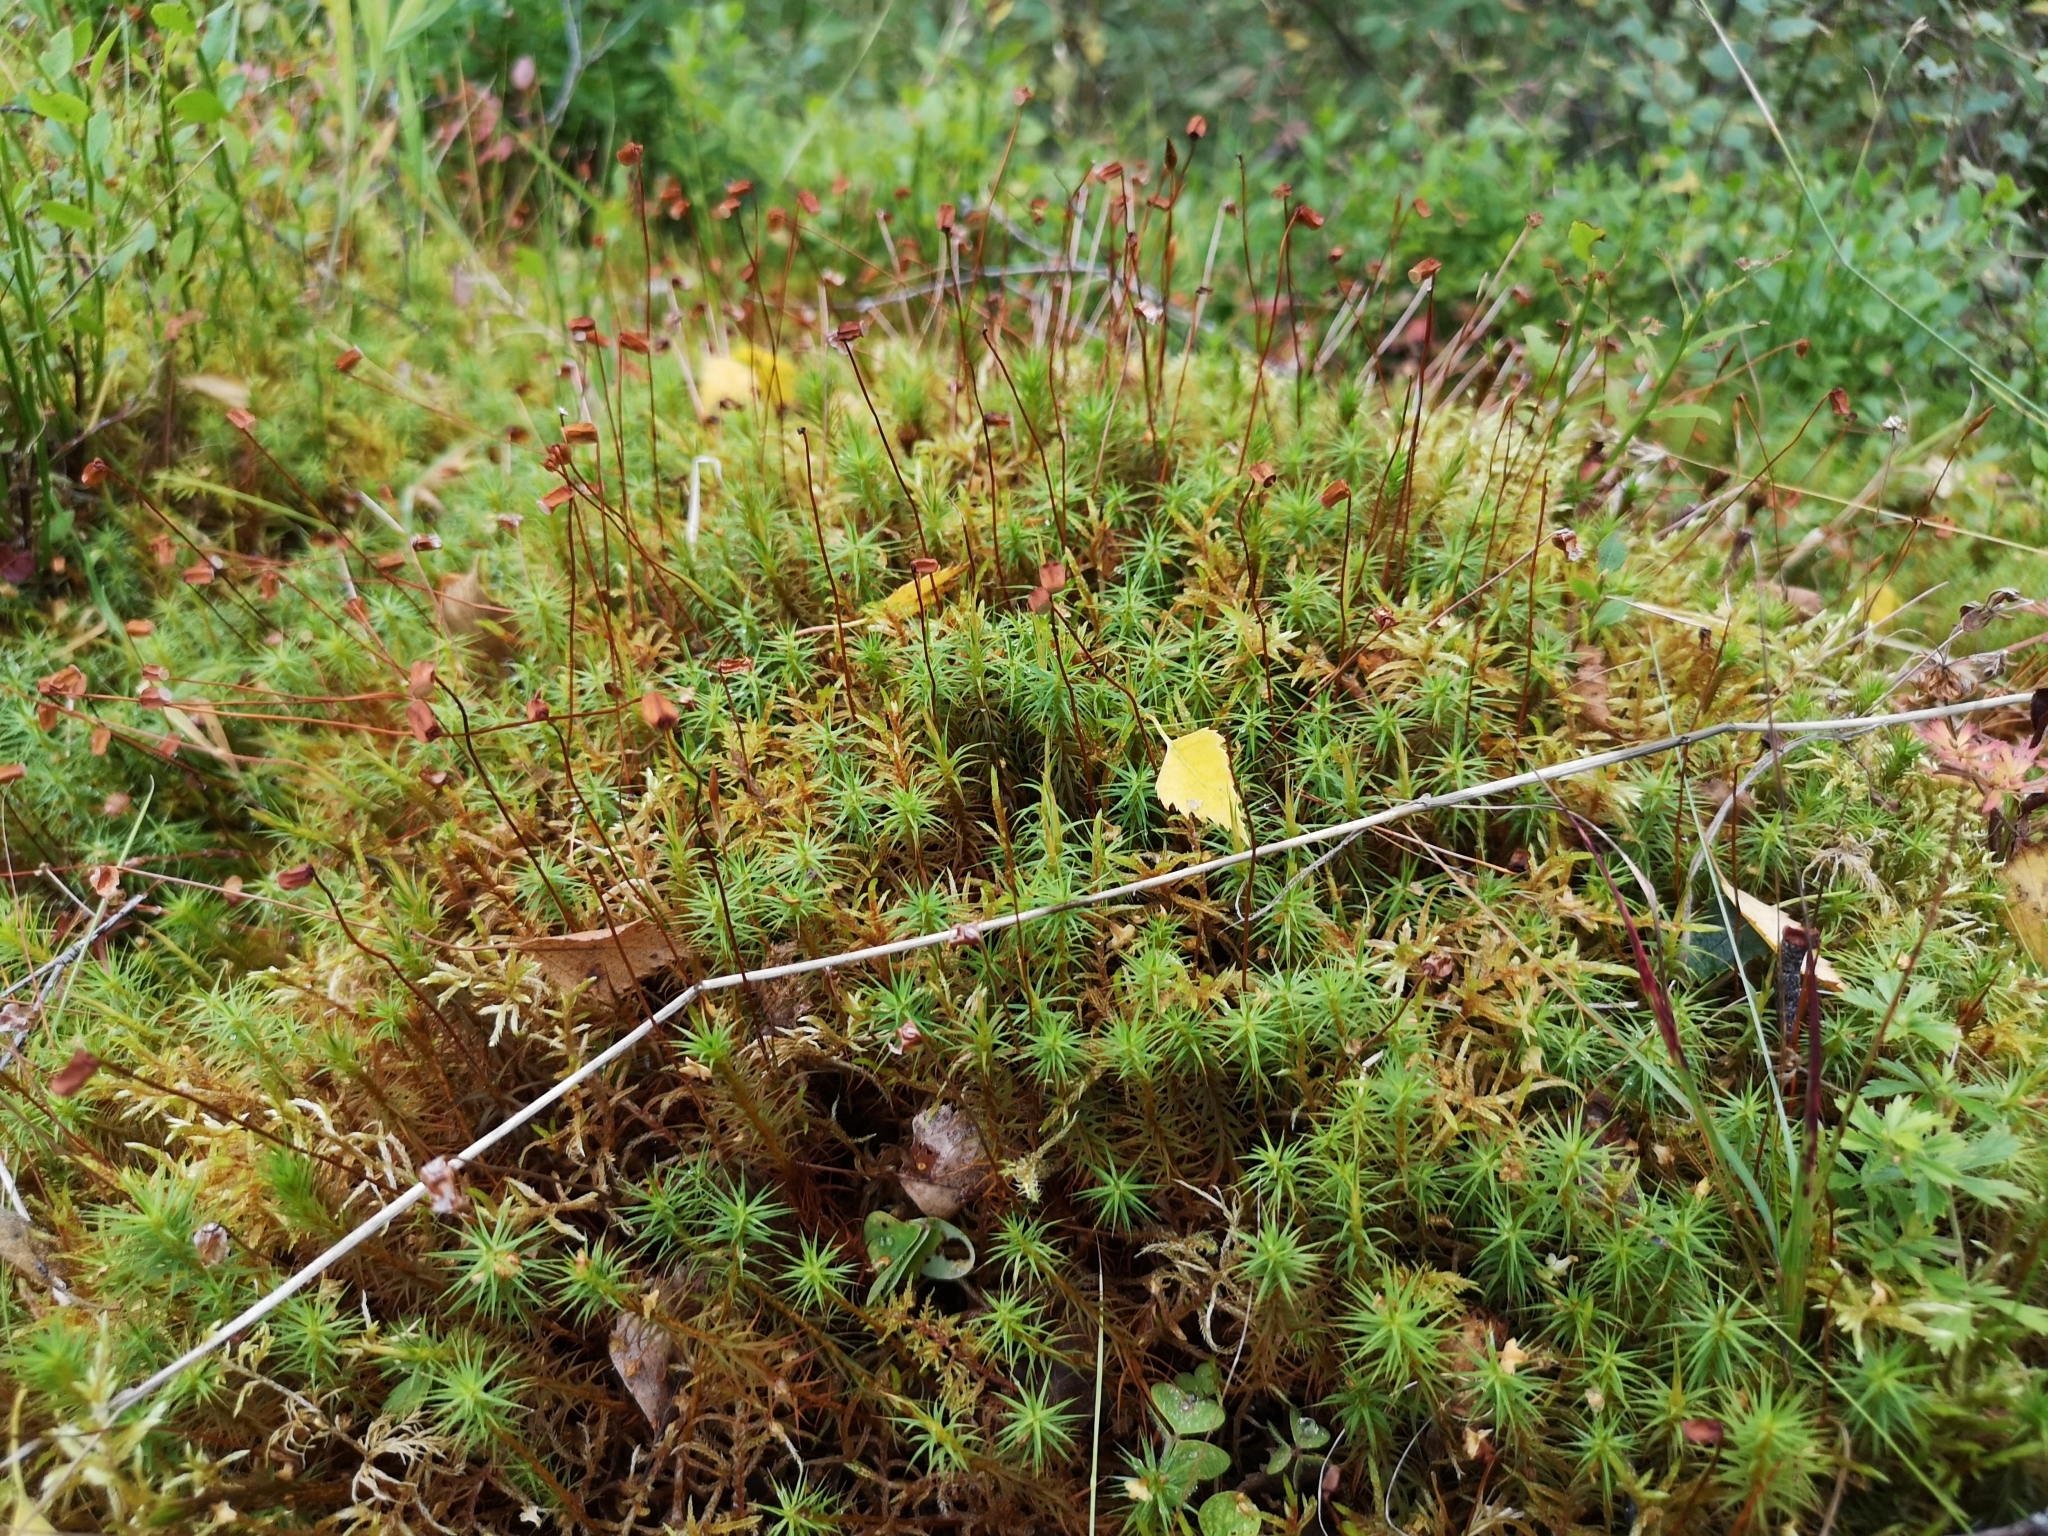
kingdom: Plantae
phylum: Bryophyta
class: Polytrichopsida
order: Polytrichales
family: Polytrichaceae
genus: Polytrichum
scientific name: Polytrichum commune
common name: Common haircap
